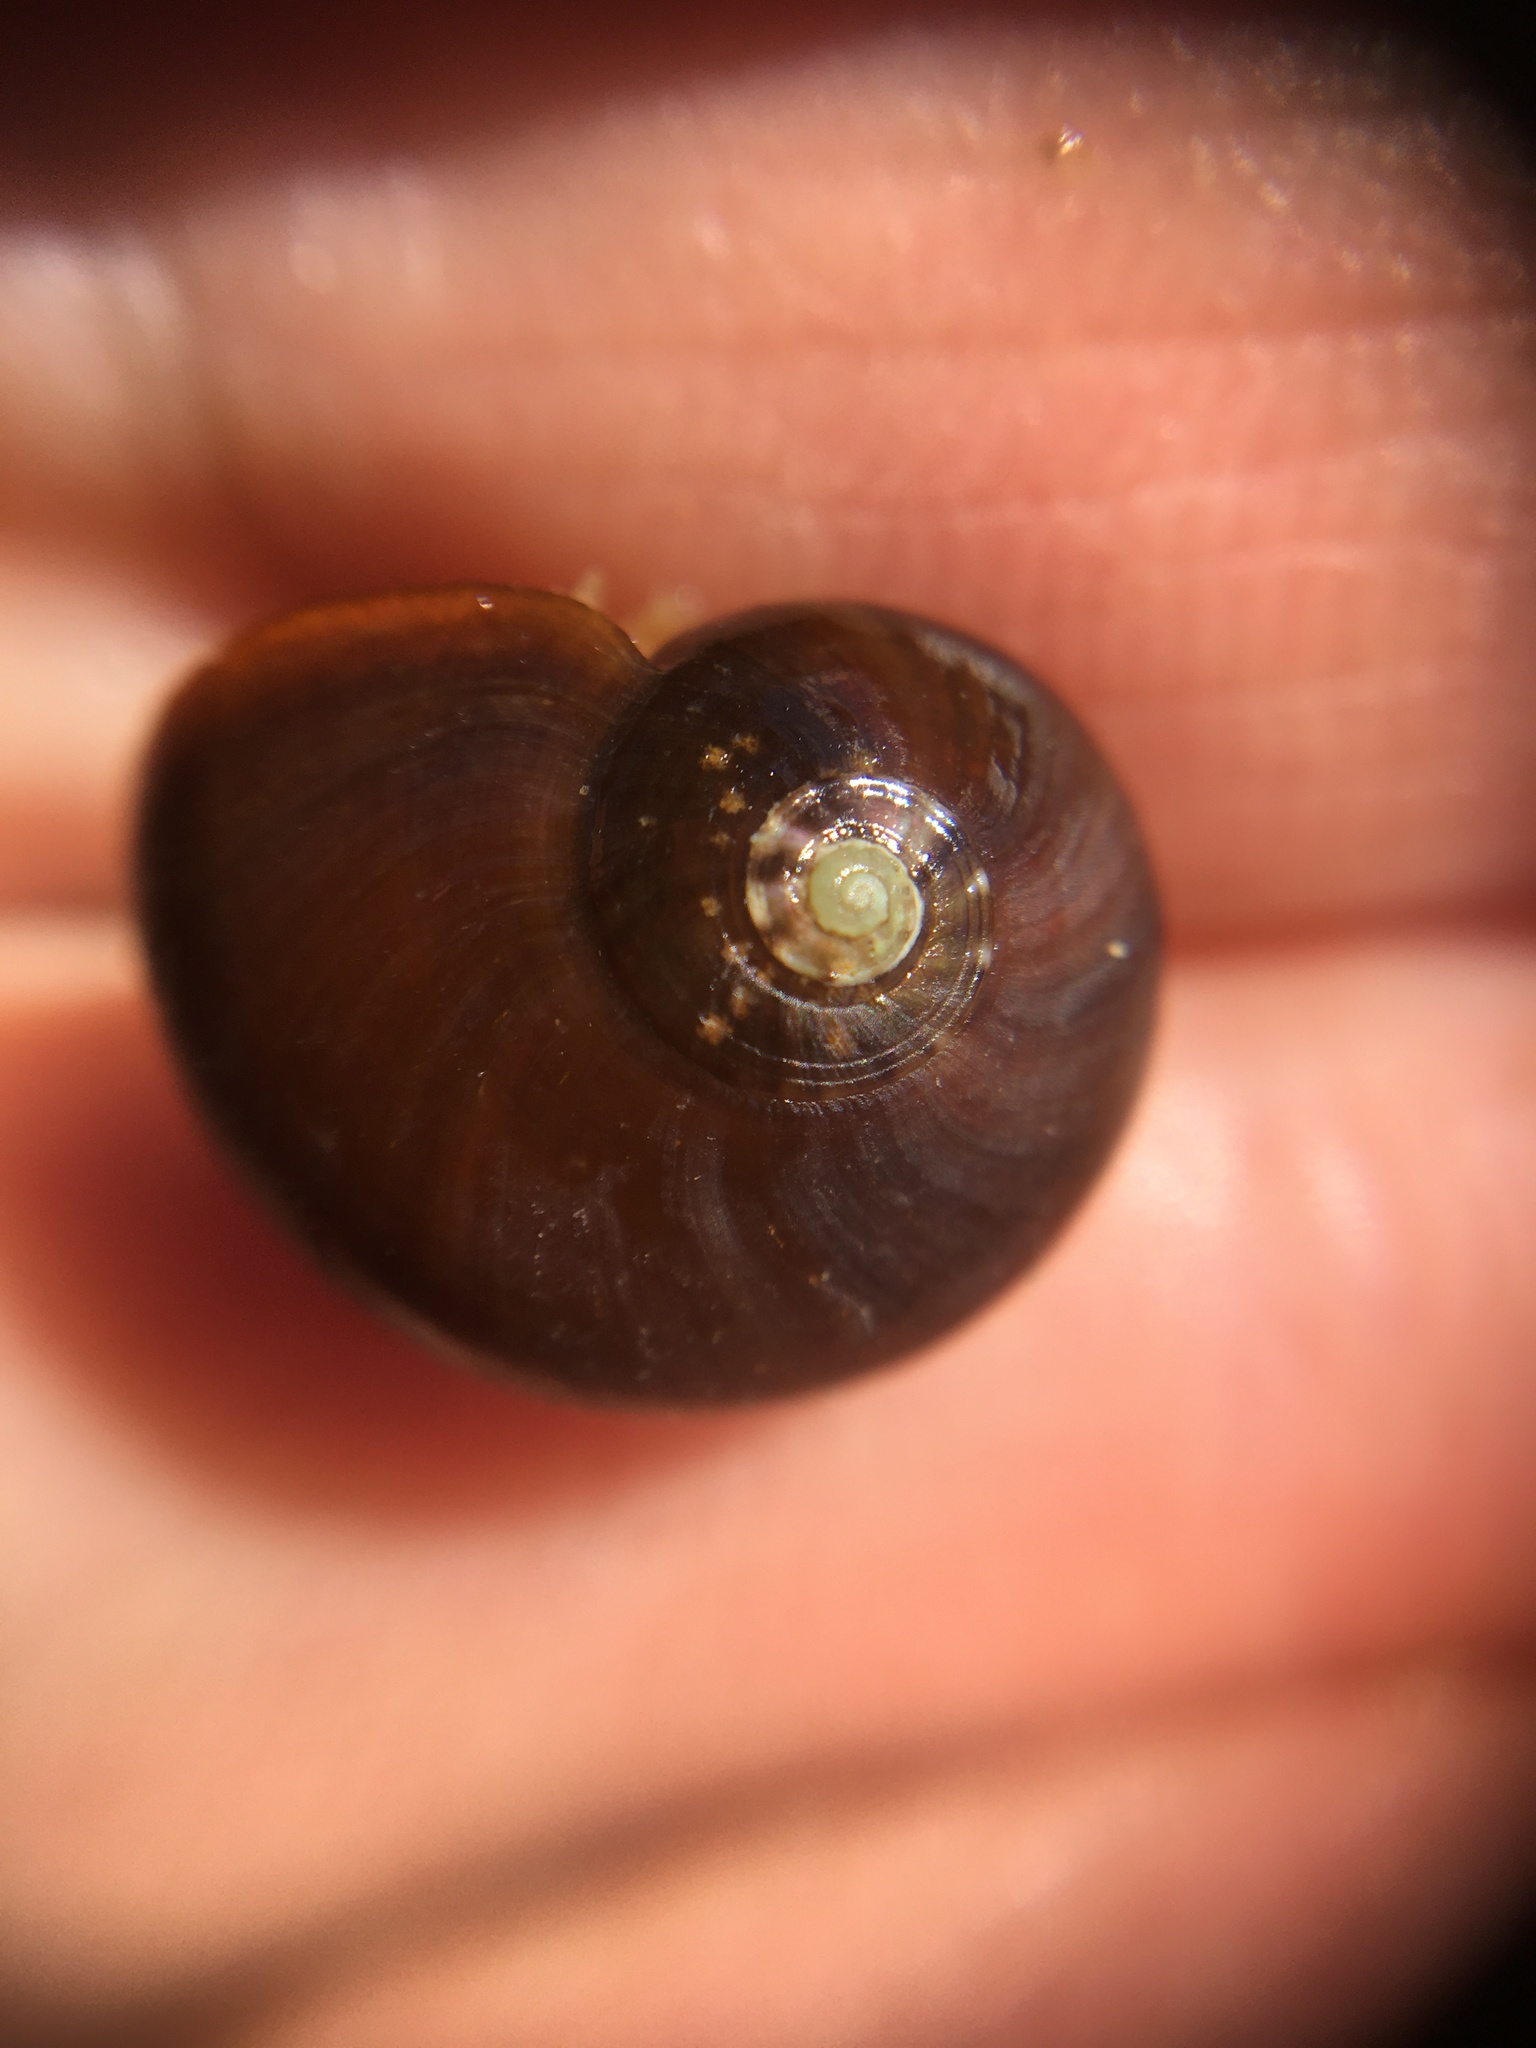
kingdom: Animalia
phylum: Mollusca
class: Gastropoda
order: Trochida
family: Tegulidae
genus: Norrisia
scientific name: Norrisia norrisii
